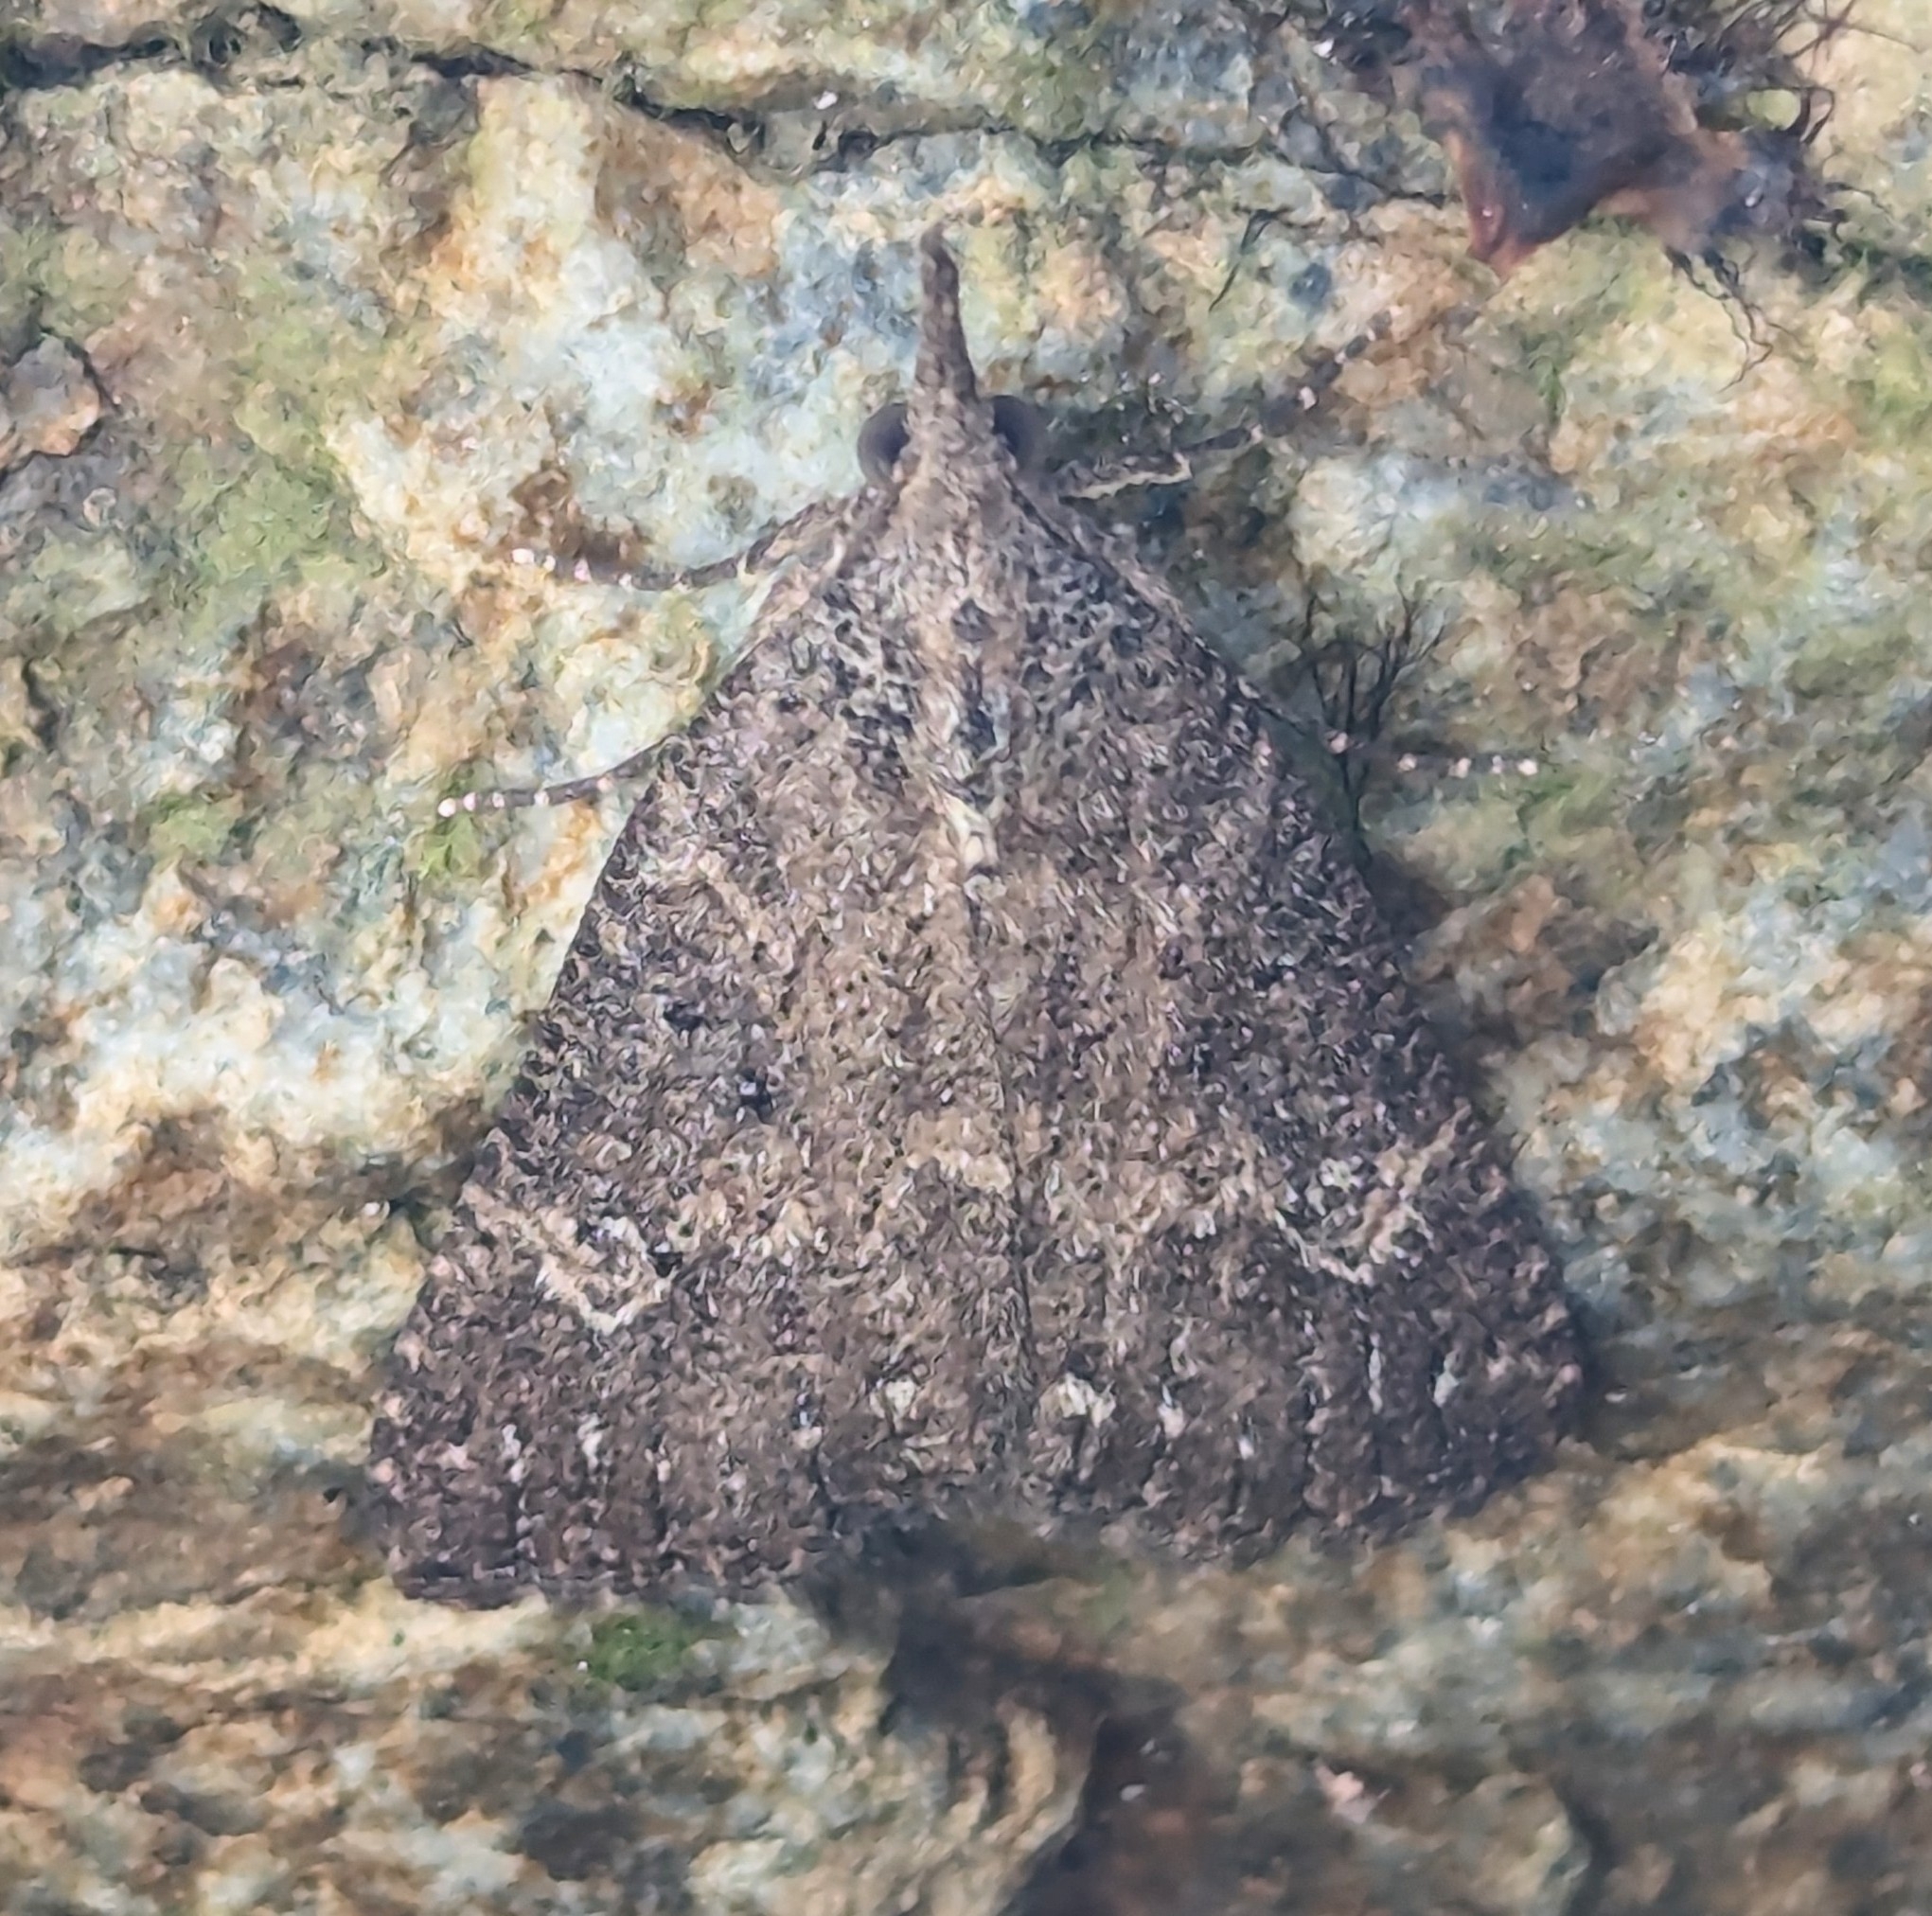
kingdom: Animalia
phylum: Arthropoda
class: Insecta
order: Lepidoptera
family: Erebidae
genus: Hypena
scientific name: Hypena humuli
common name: Hop vine snout
